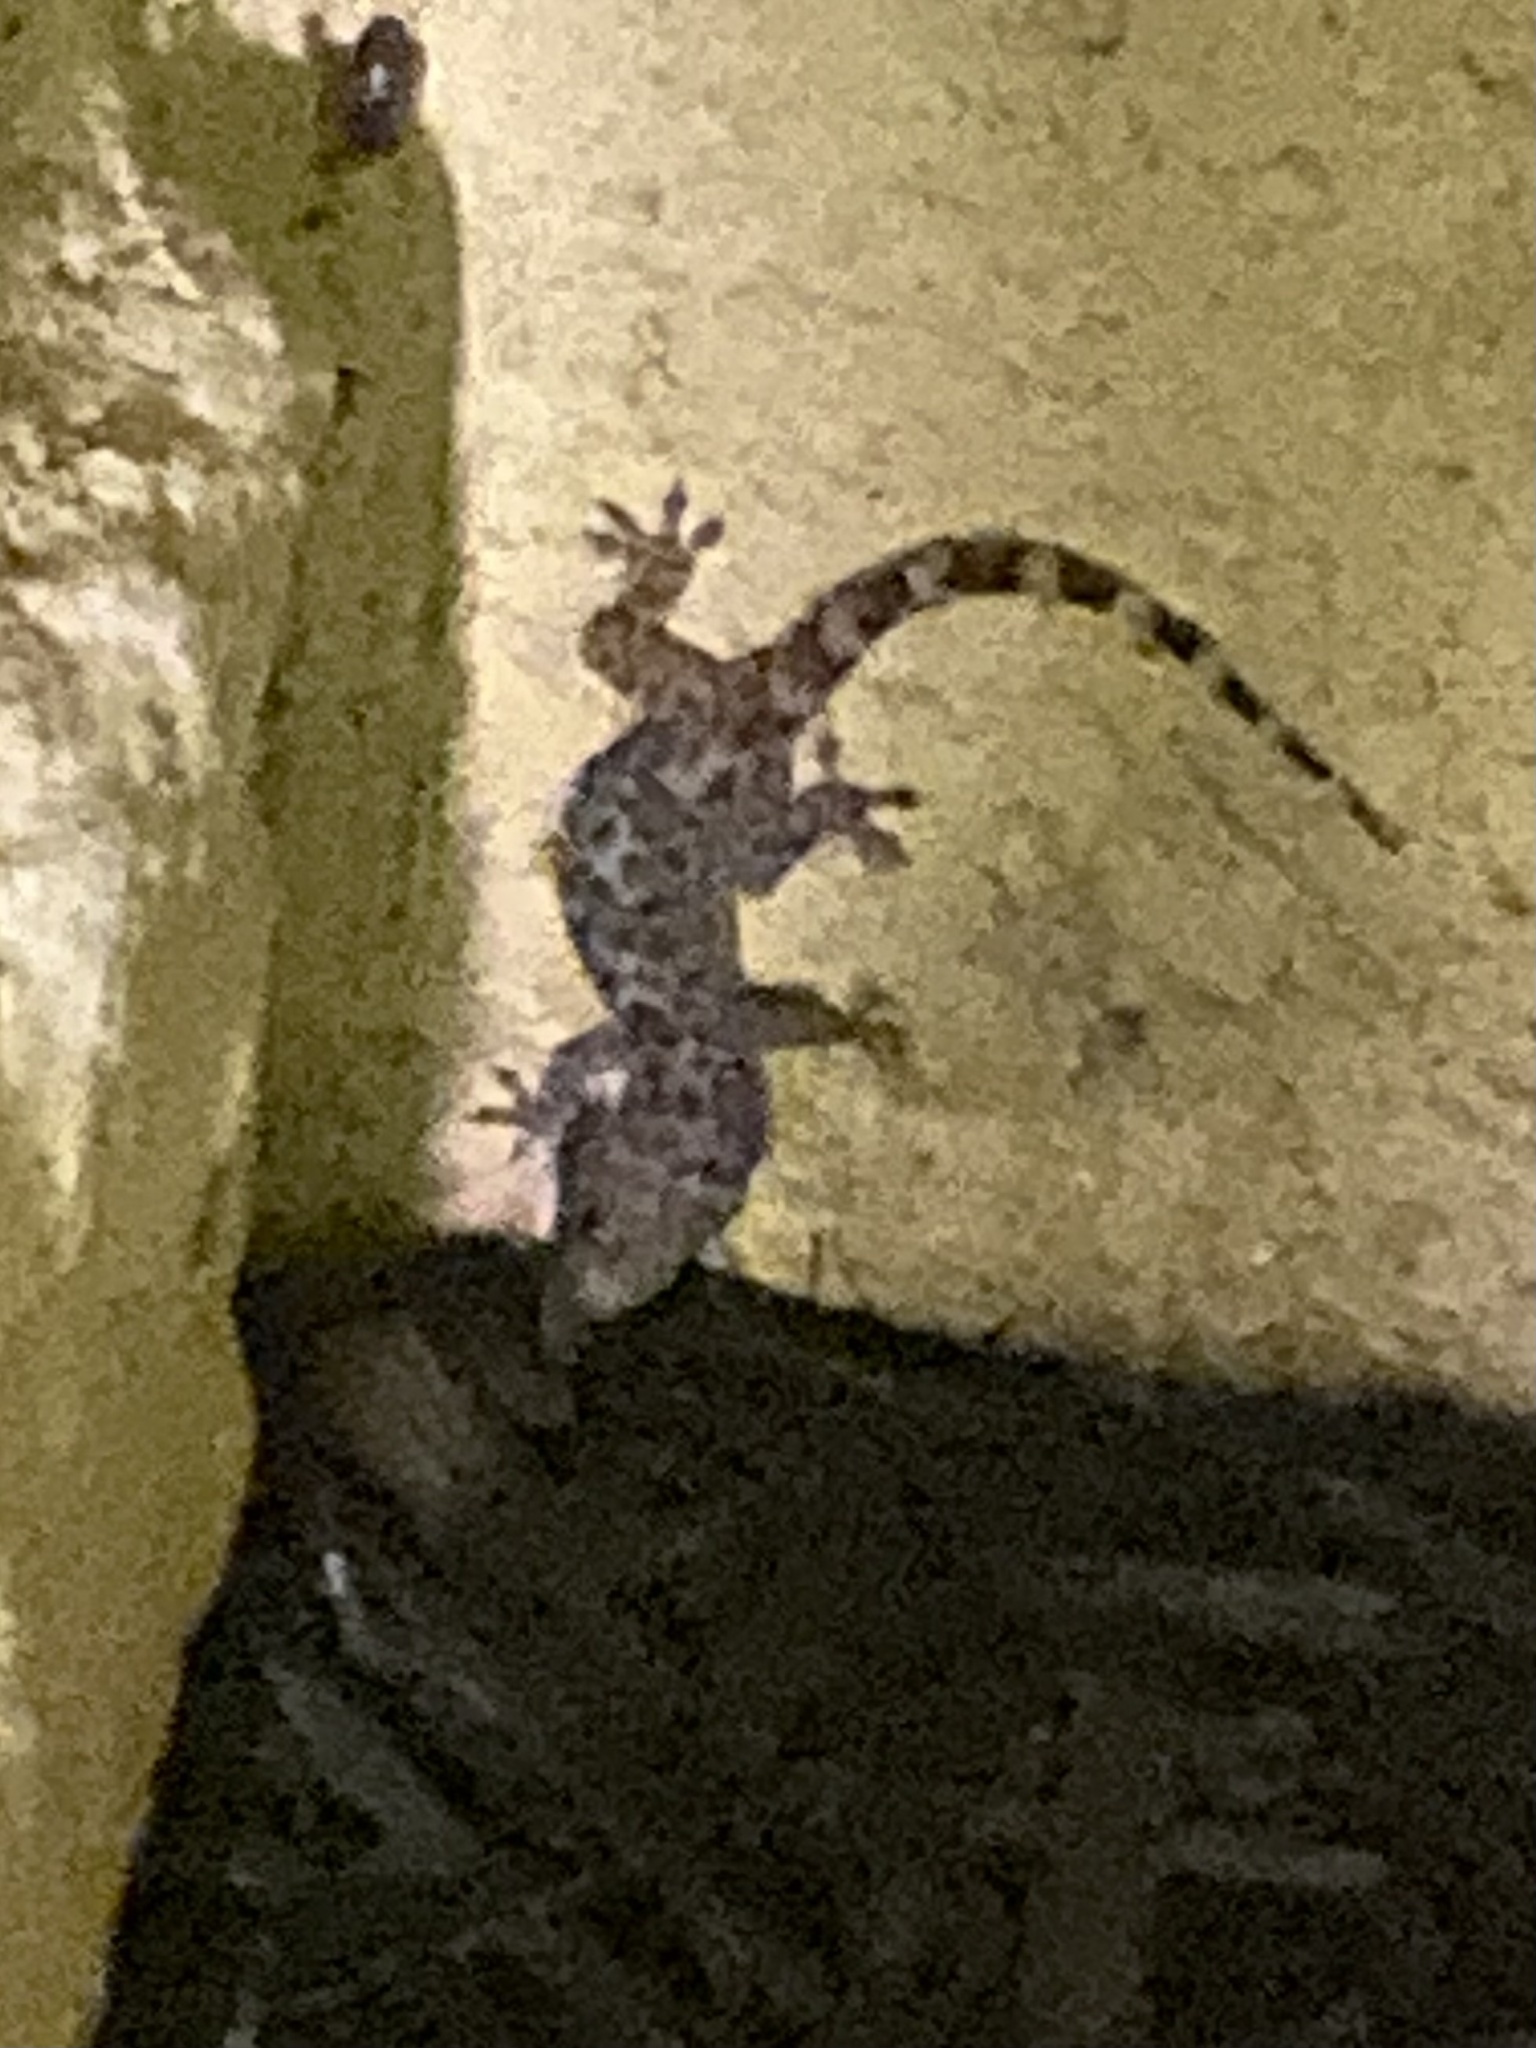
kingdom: Animalia
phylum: Chordata
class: Squamata
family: Gekkonidae
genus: Hemidactylus
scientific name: Hemidactylus turcicus
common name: Turkish gecko
